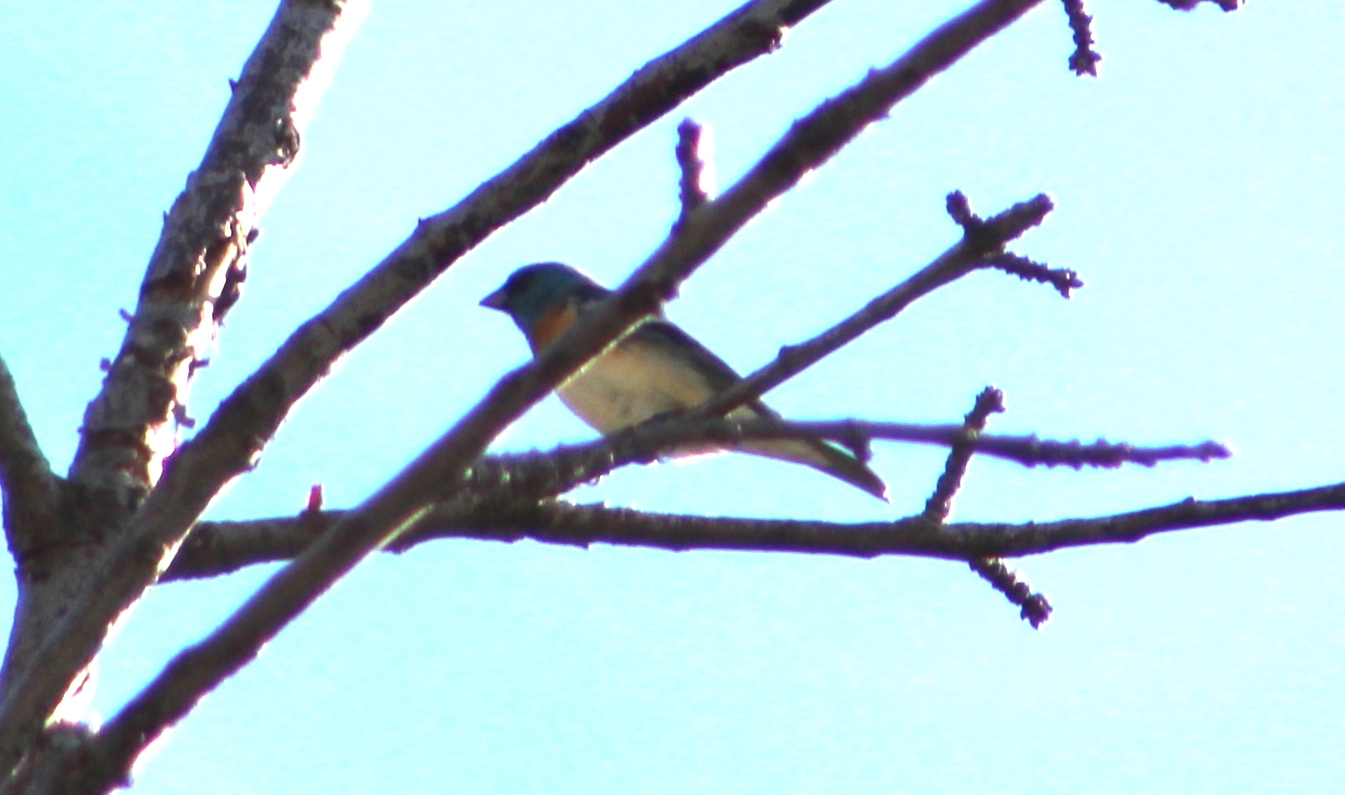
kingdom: Animalia
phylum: Chordata
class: Aves
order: Passeriformes
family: Cardinalidae
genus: Passerina
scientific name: Passerina amoena
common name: Lazuli bunting
